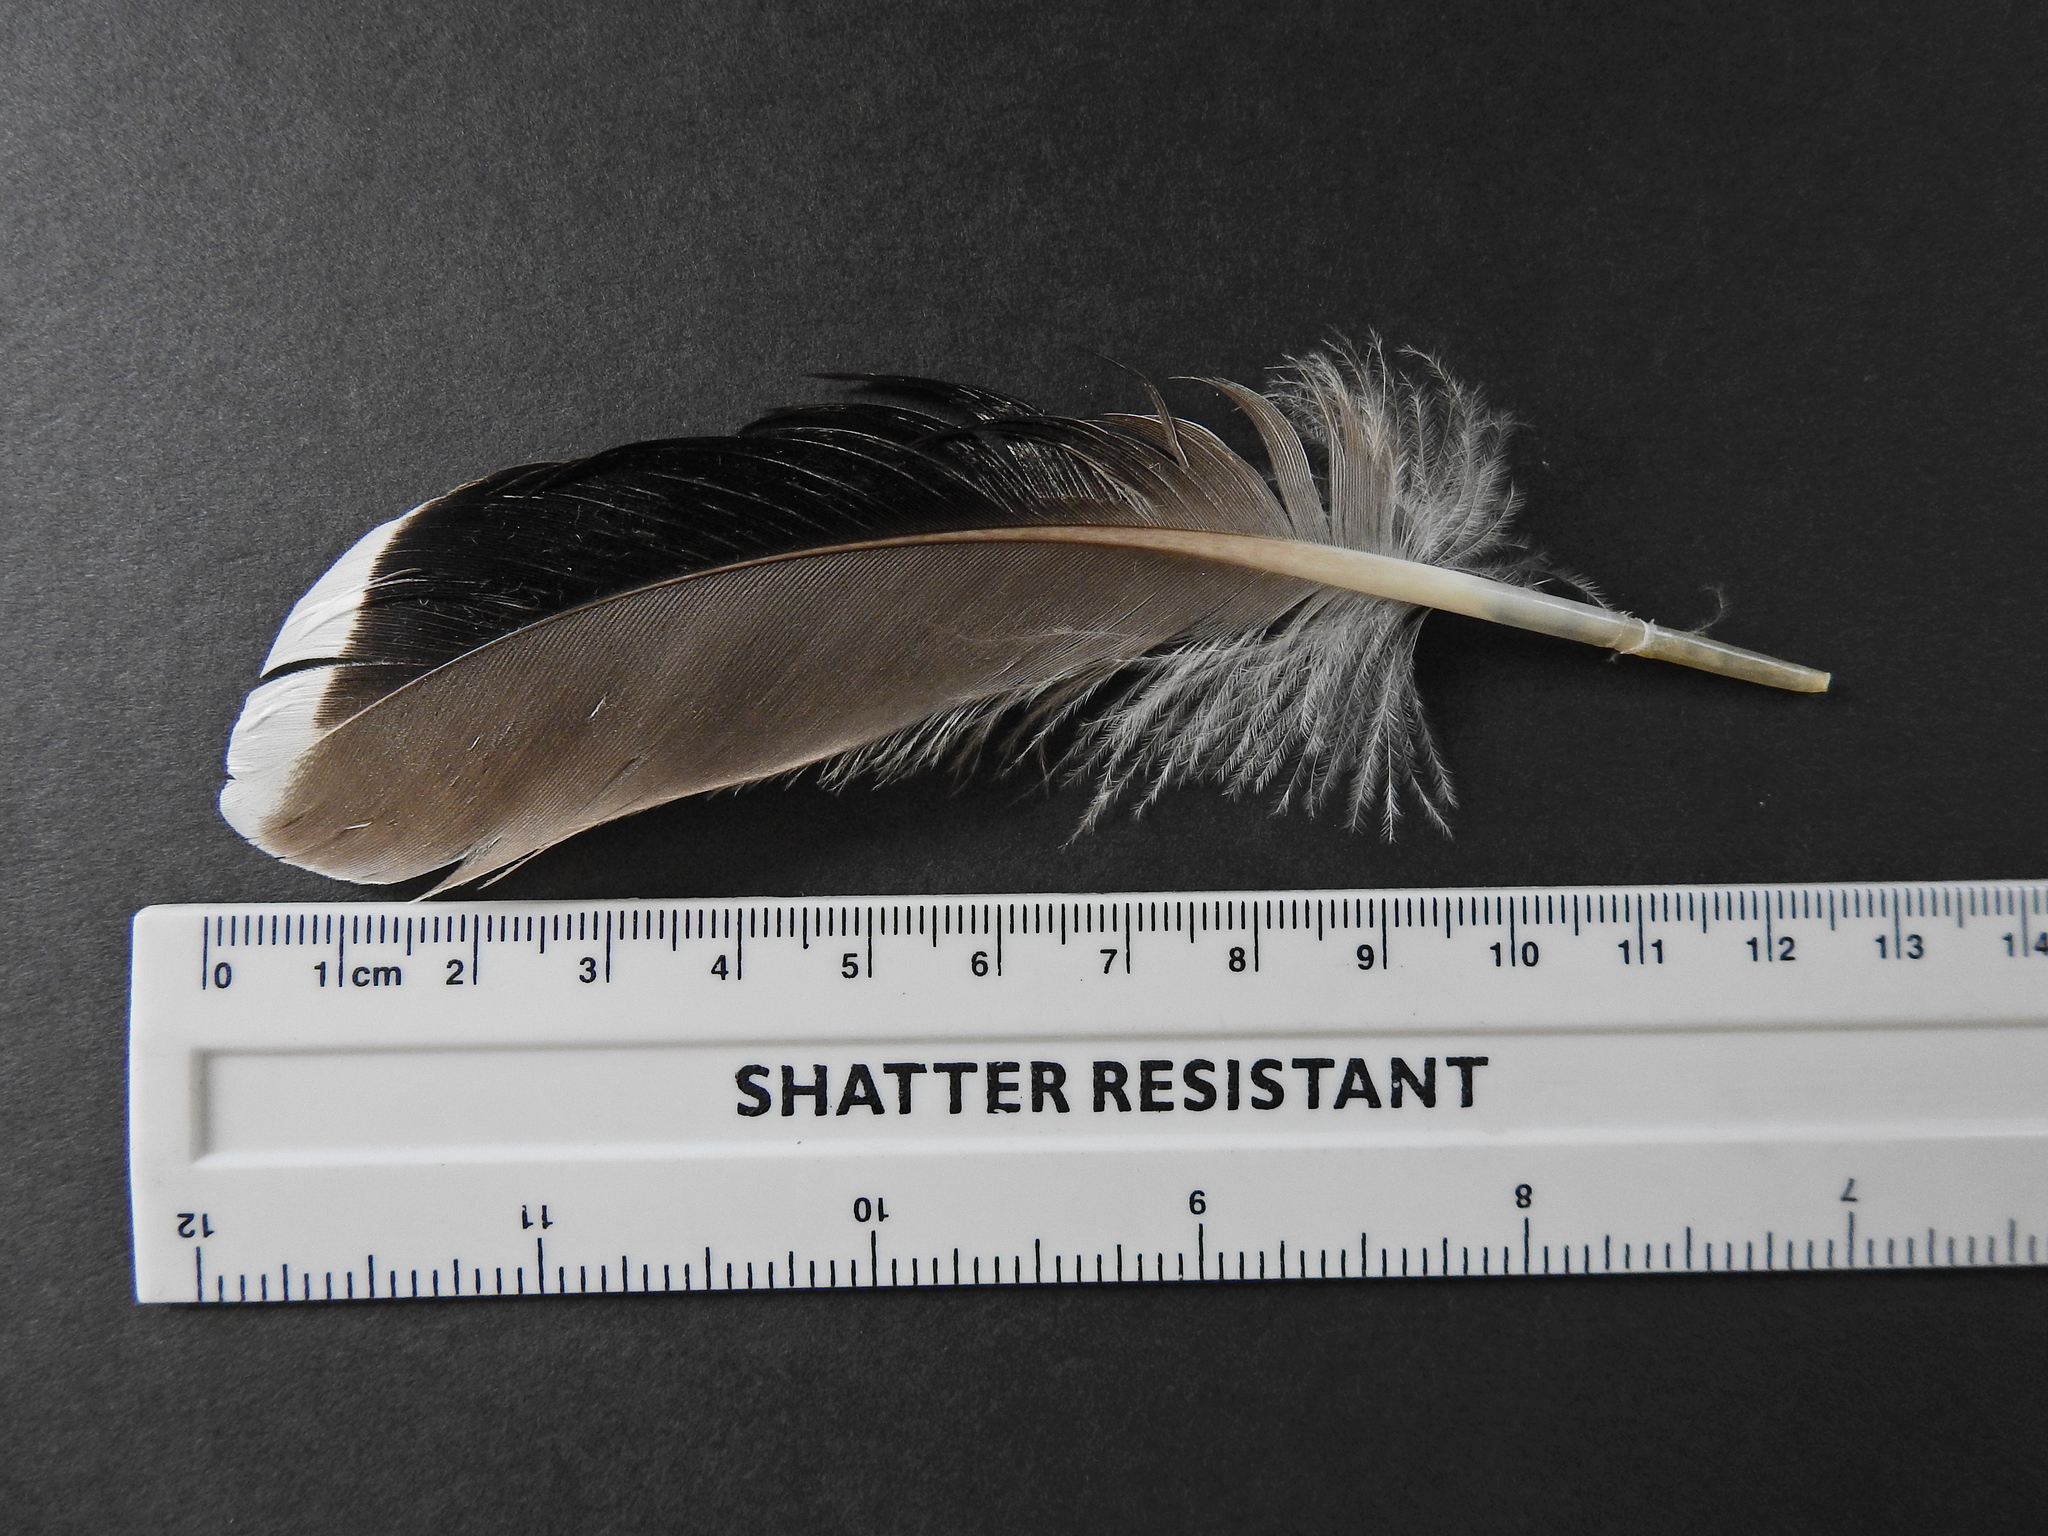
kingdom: Animalia
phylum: Chordata
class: Aves
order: Anseriformes
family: Anatidae
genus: Anas
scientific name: Anas platyrhynchos
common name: Mallard
